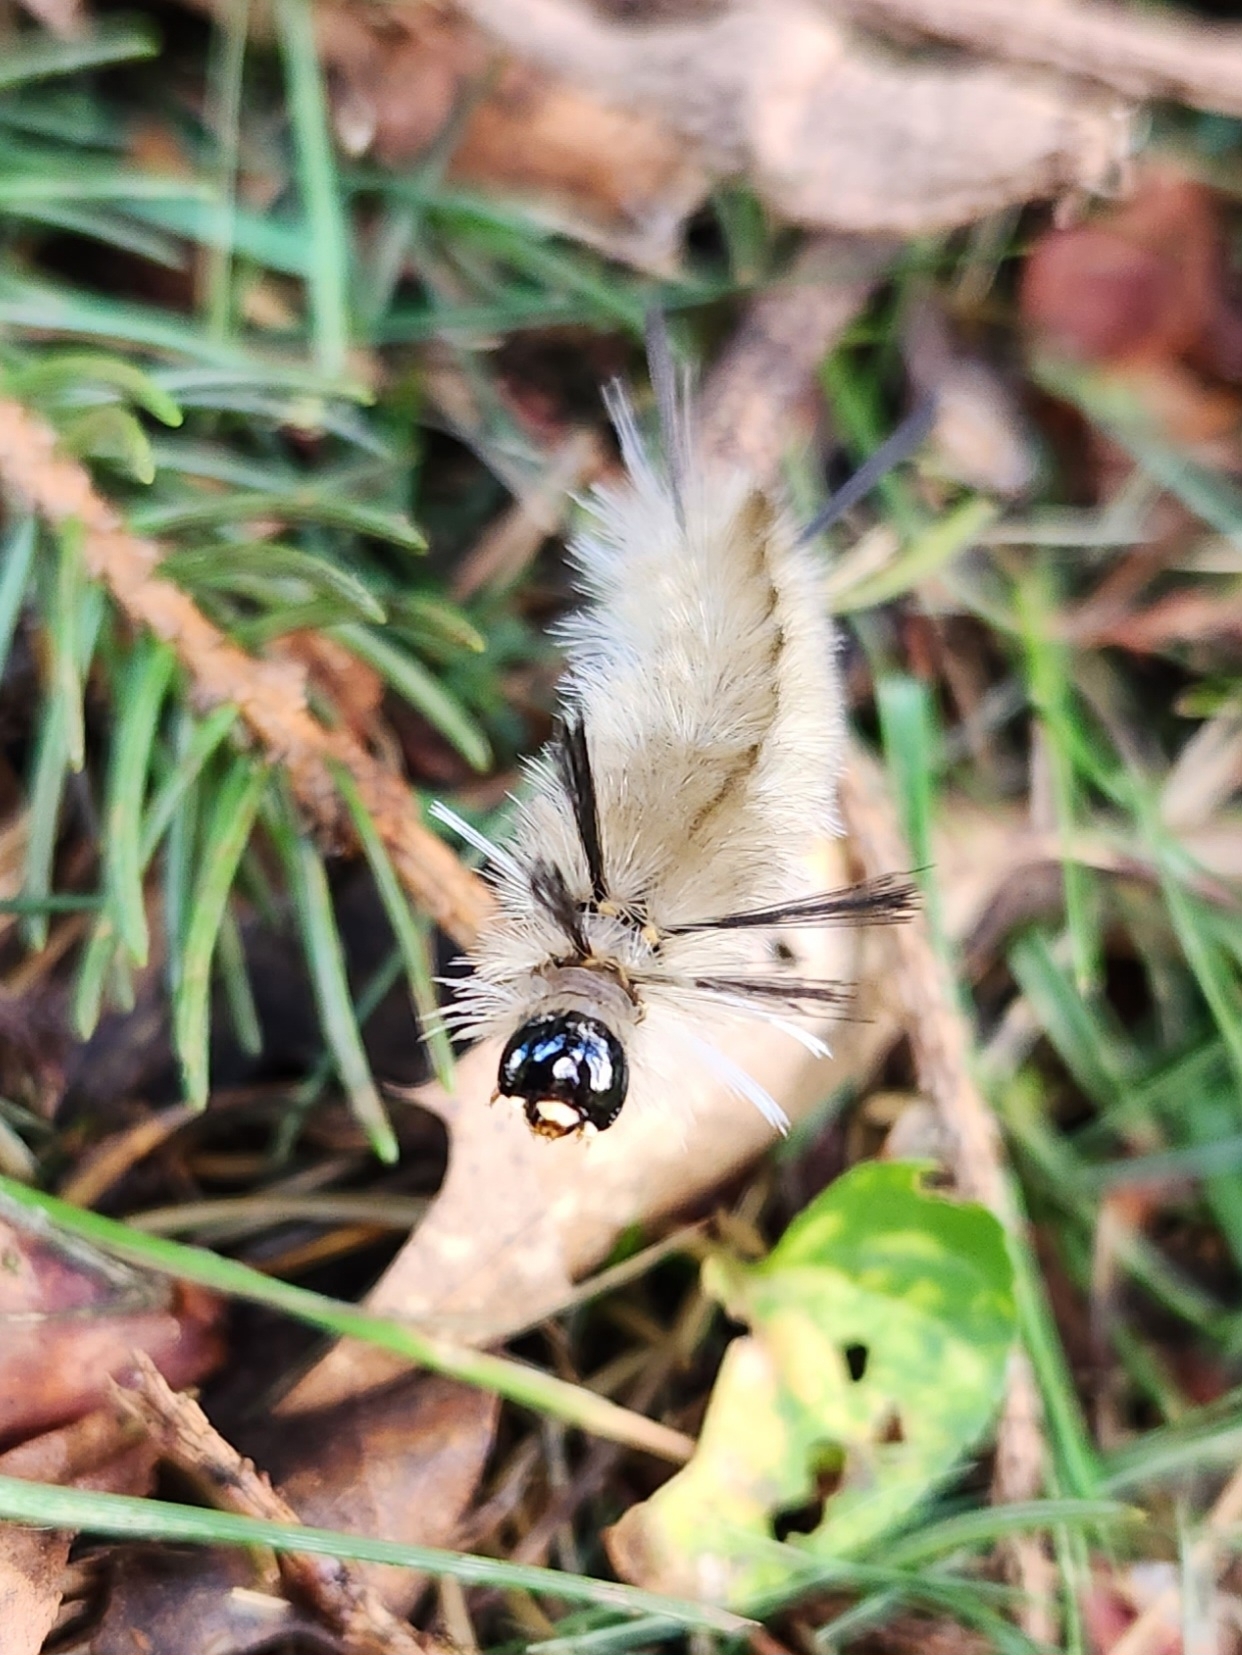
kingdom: Animalia
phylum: Arthropoda
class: Insecta
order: Lepidoptera
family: Erebidae
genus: Halysidota
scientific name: Halysidota tessellaris
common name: Banded tussock moth
